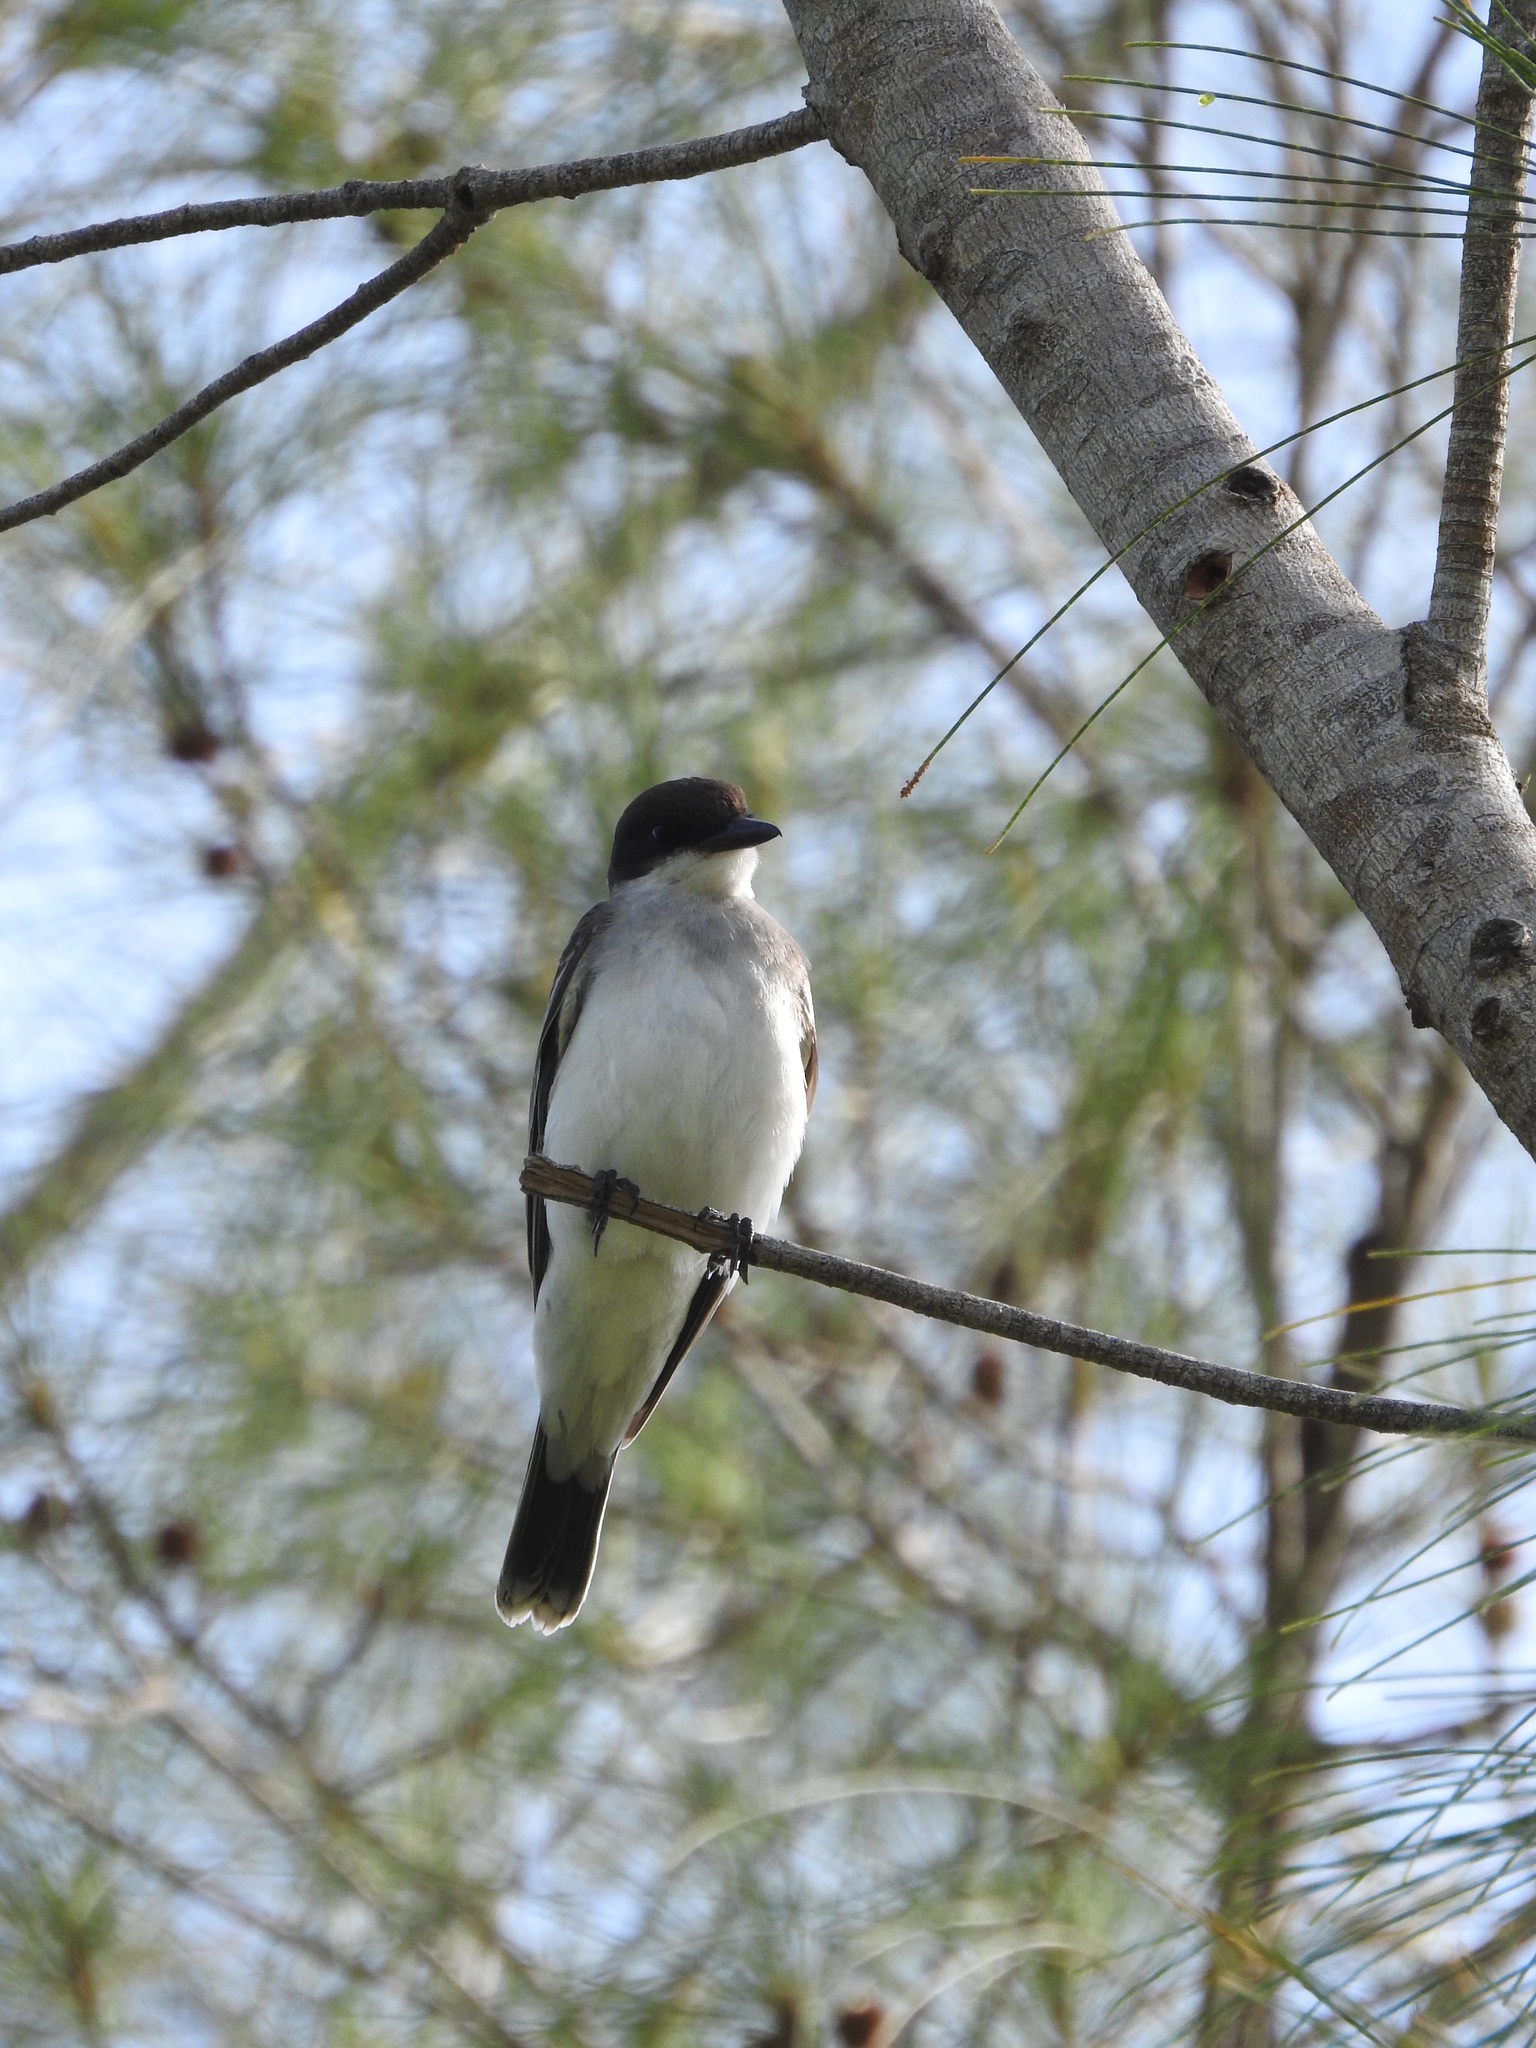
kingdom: Animalia
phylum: Chordata
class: Aves
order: Passeriformes
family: Tyrannidae
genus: Tyrannus
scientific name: Tyrannus tyrannus
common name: Eastern kingbird
